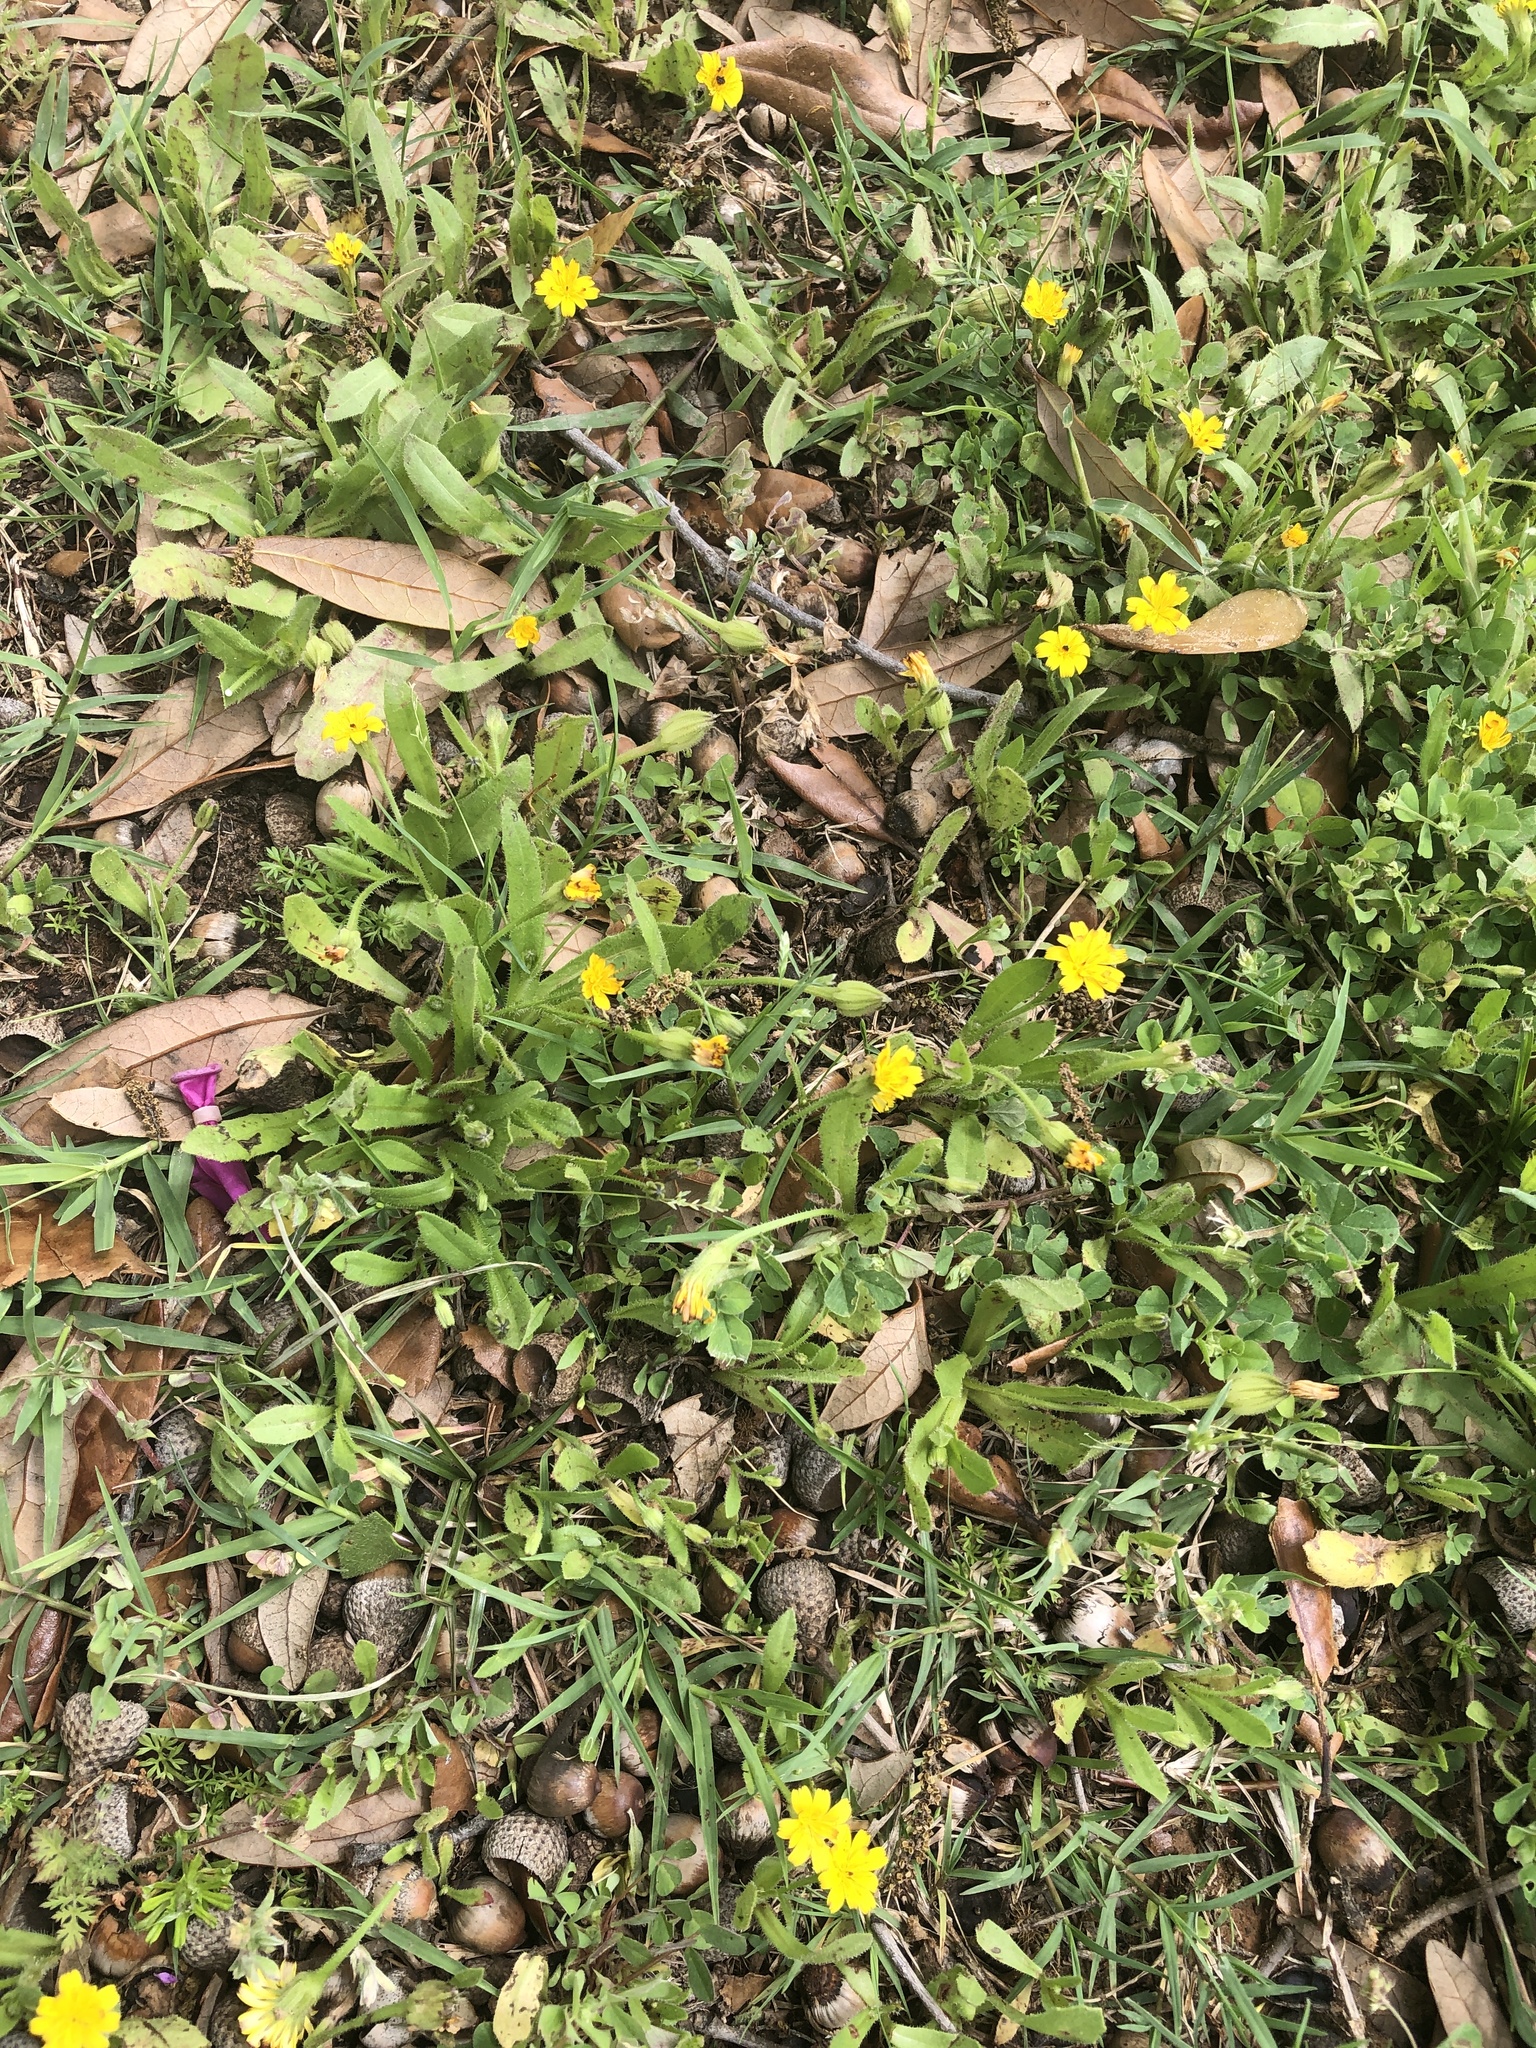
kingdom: Plantae
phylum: Tracheophyta
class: Magnoliopsida
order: Asterales
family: Asteraceae
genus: Hedypnois
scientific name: Hedypnois rhagadioloides
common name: Cretan weed
